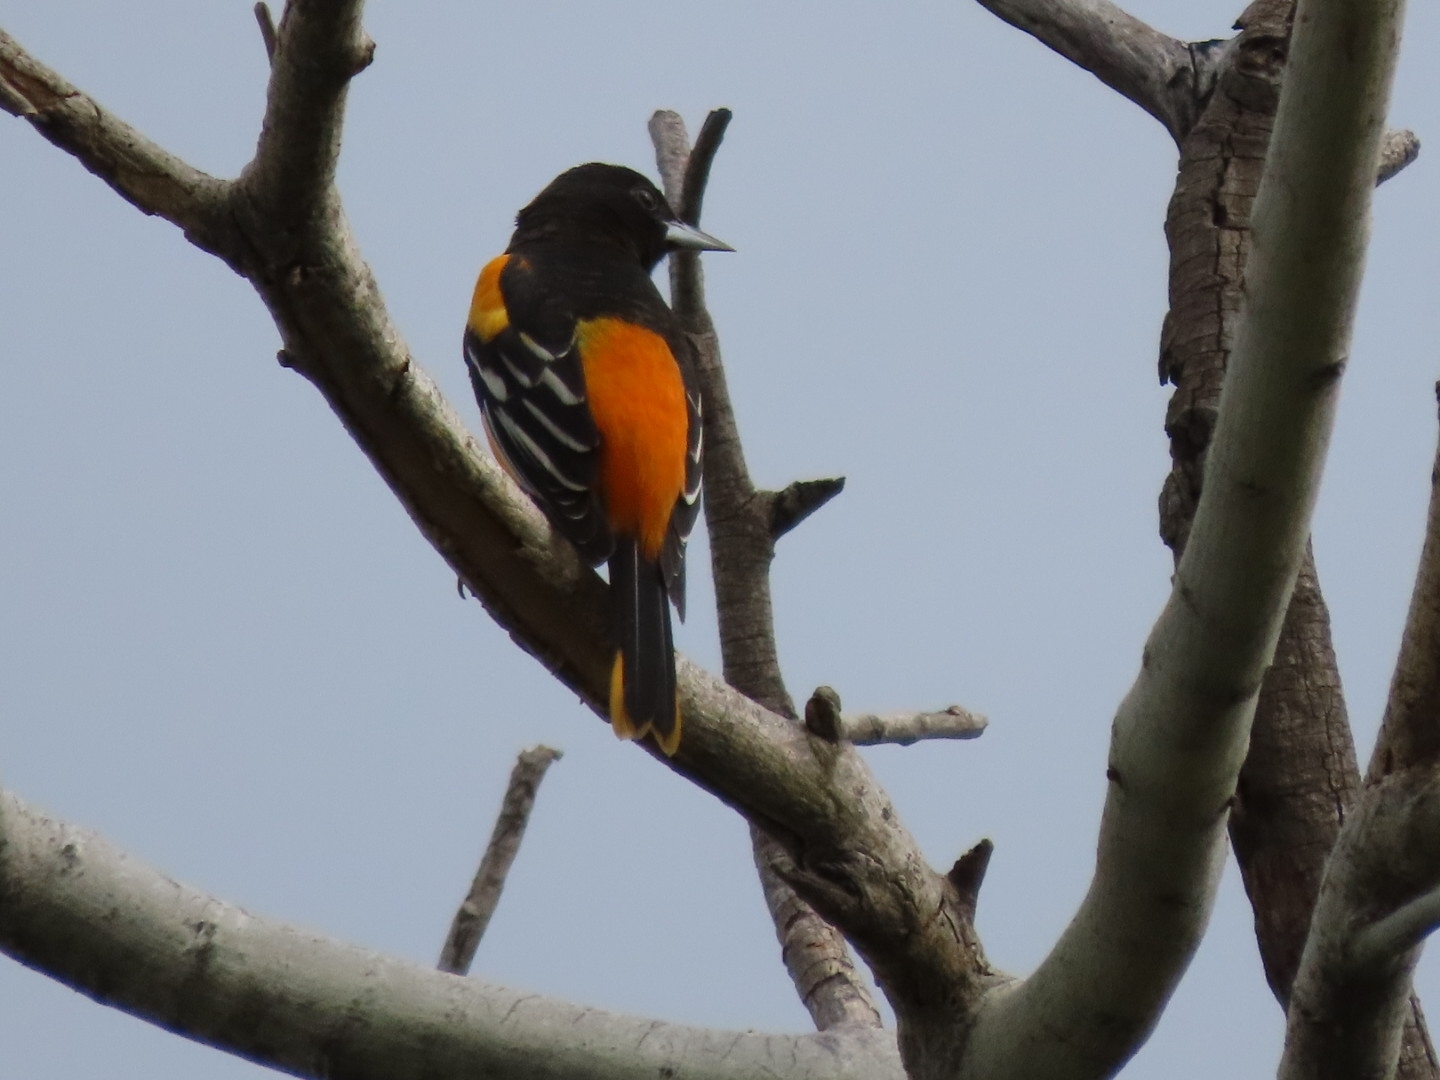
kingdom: Animalia
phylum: Chordata
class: Aves
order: Passeriformes
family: Icteridae
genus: Icterus
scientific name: Icterus galbula
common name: Baltimore oriole
